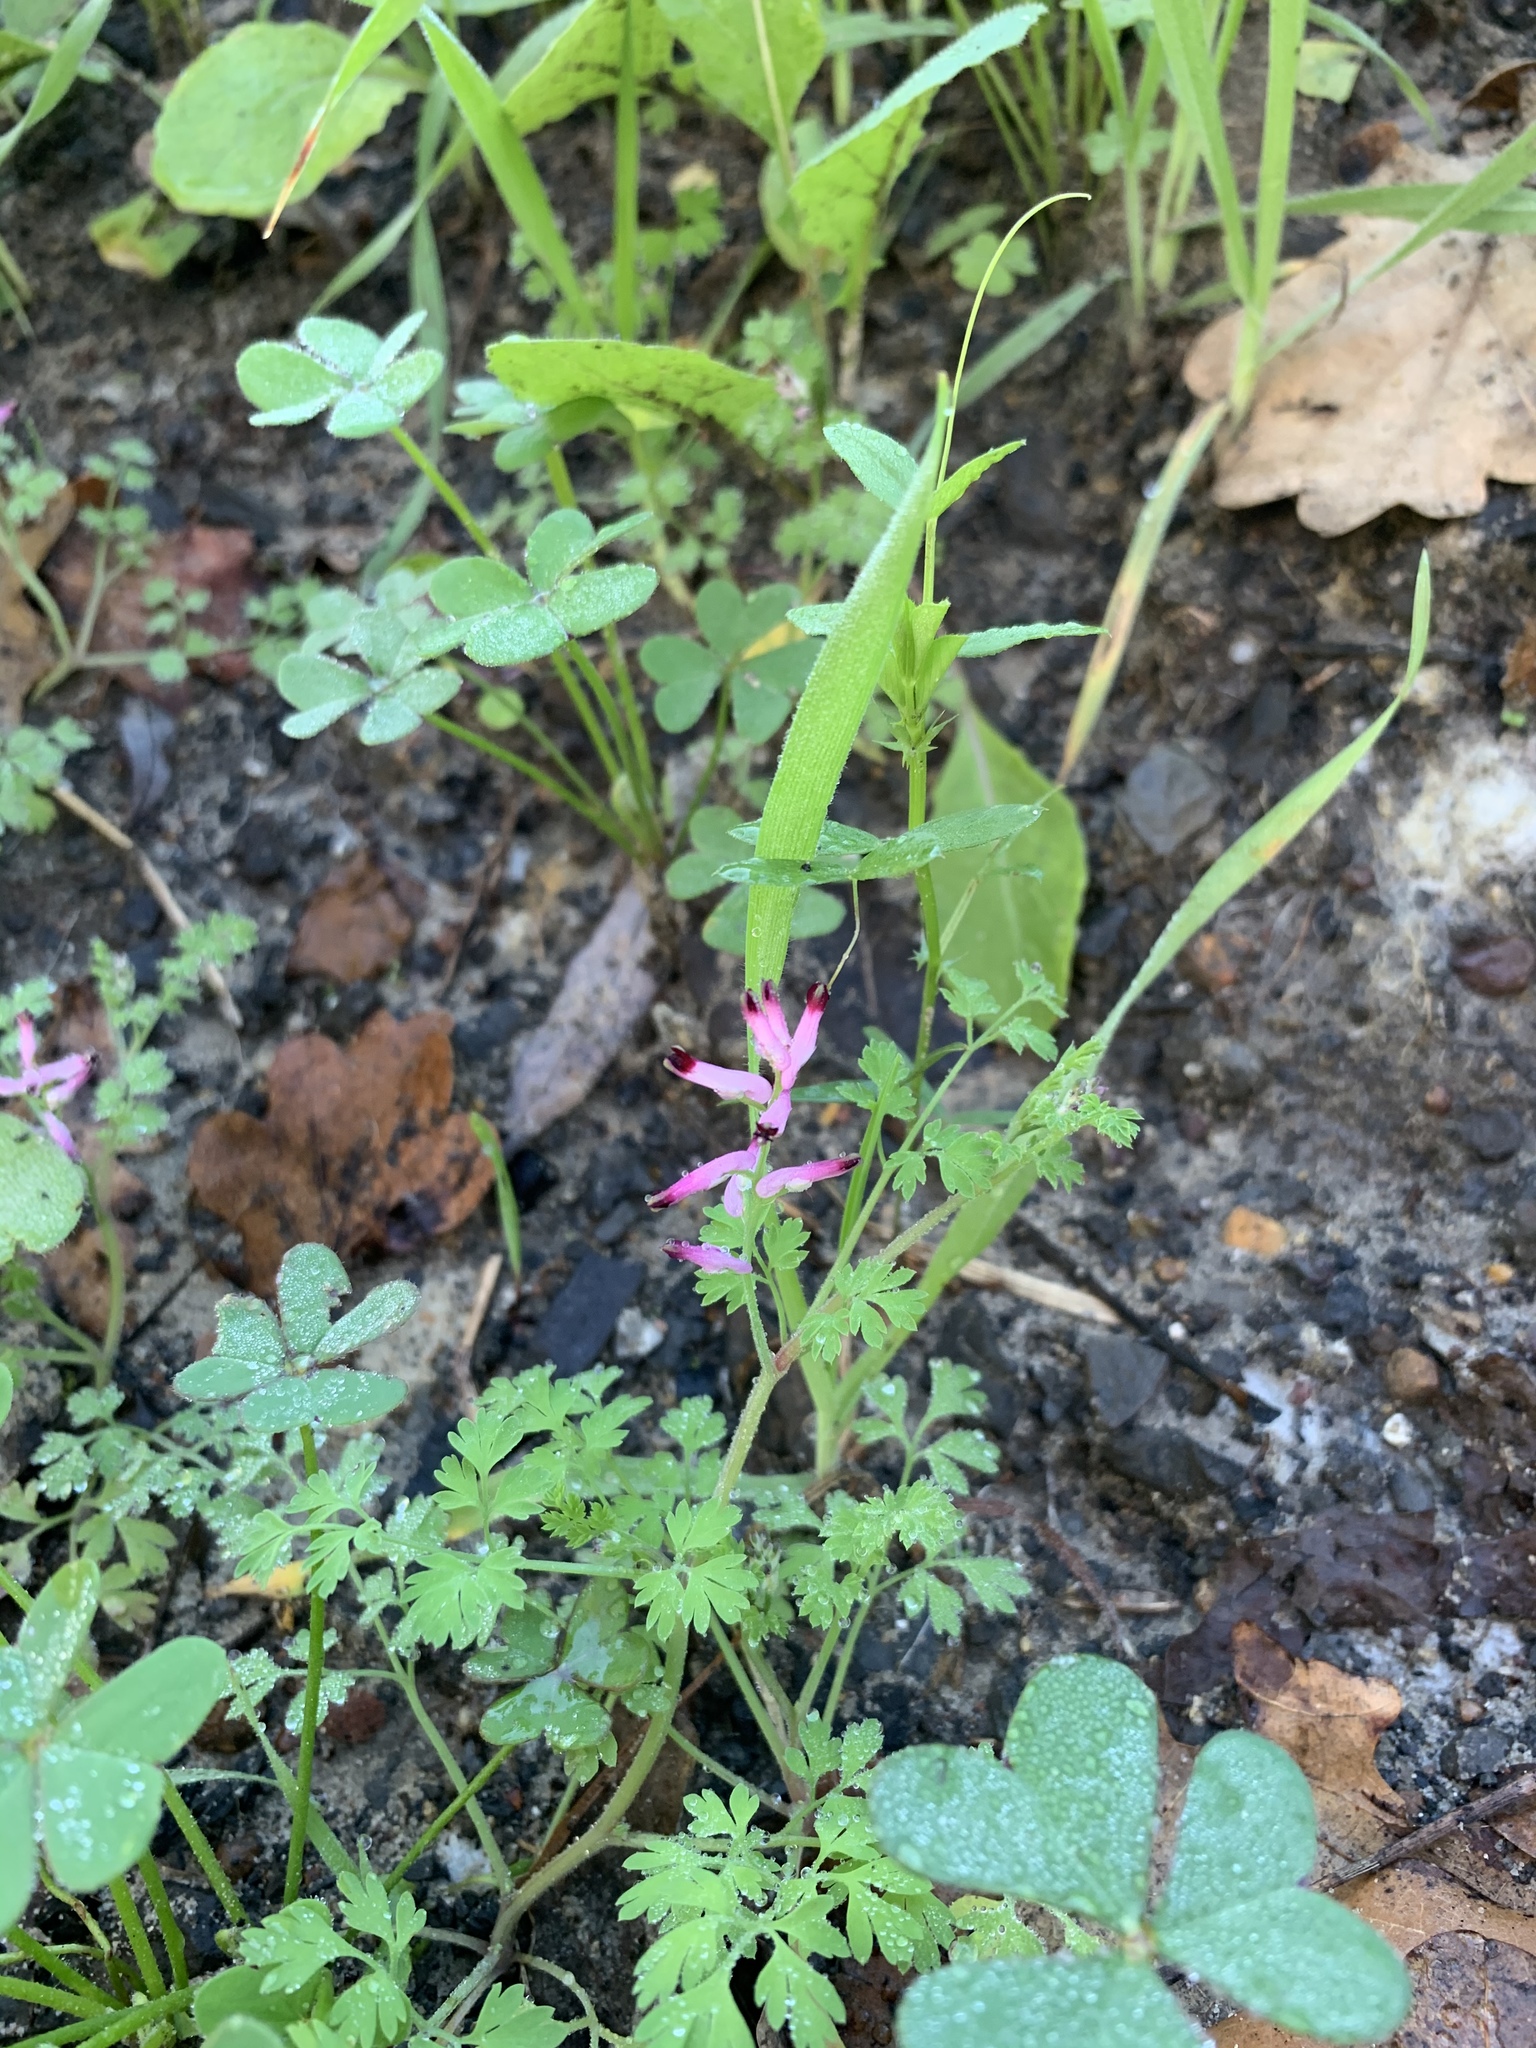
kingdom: Plantae
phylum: Tracheophyta
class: Magnoliopsida
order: Ranunculales
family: Papaveraceae
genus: Fumaria
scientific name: Fumaria muralis
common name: Common ramping-fumitory
